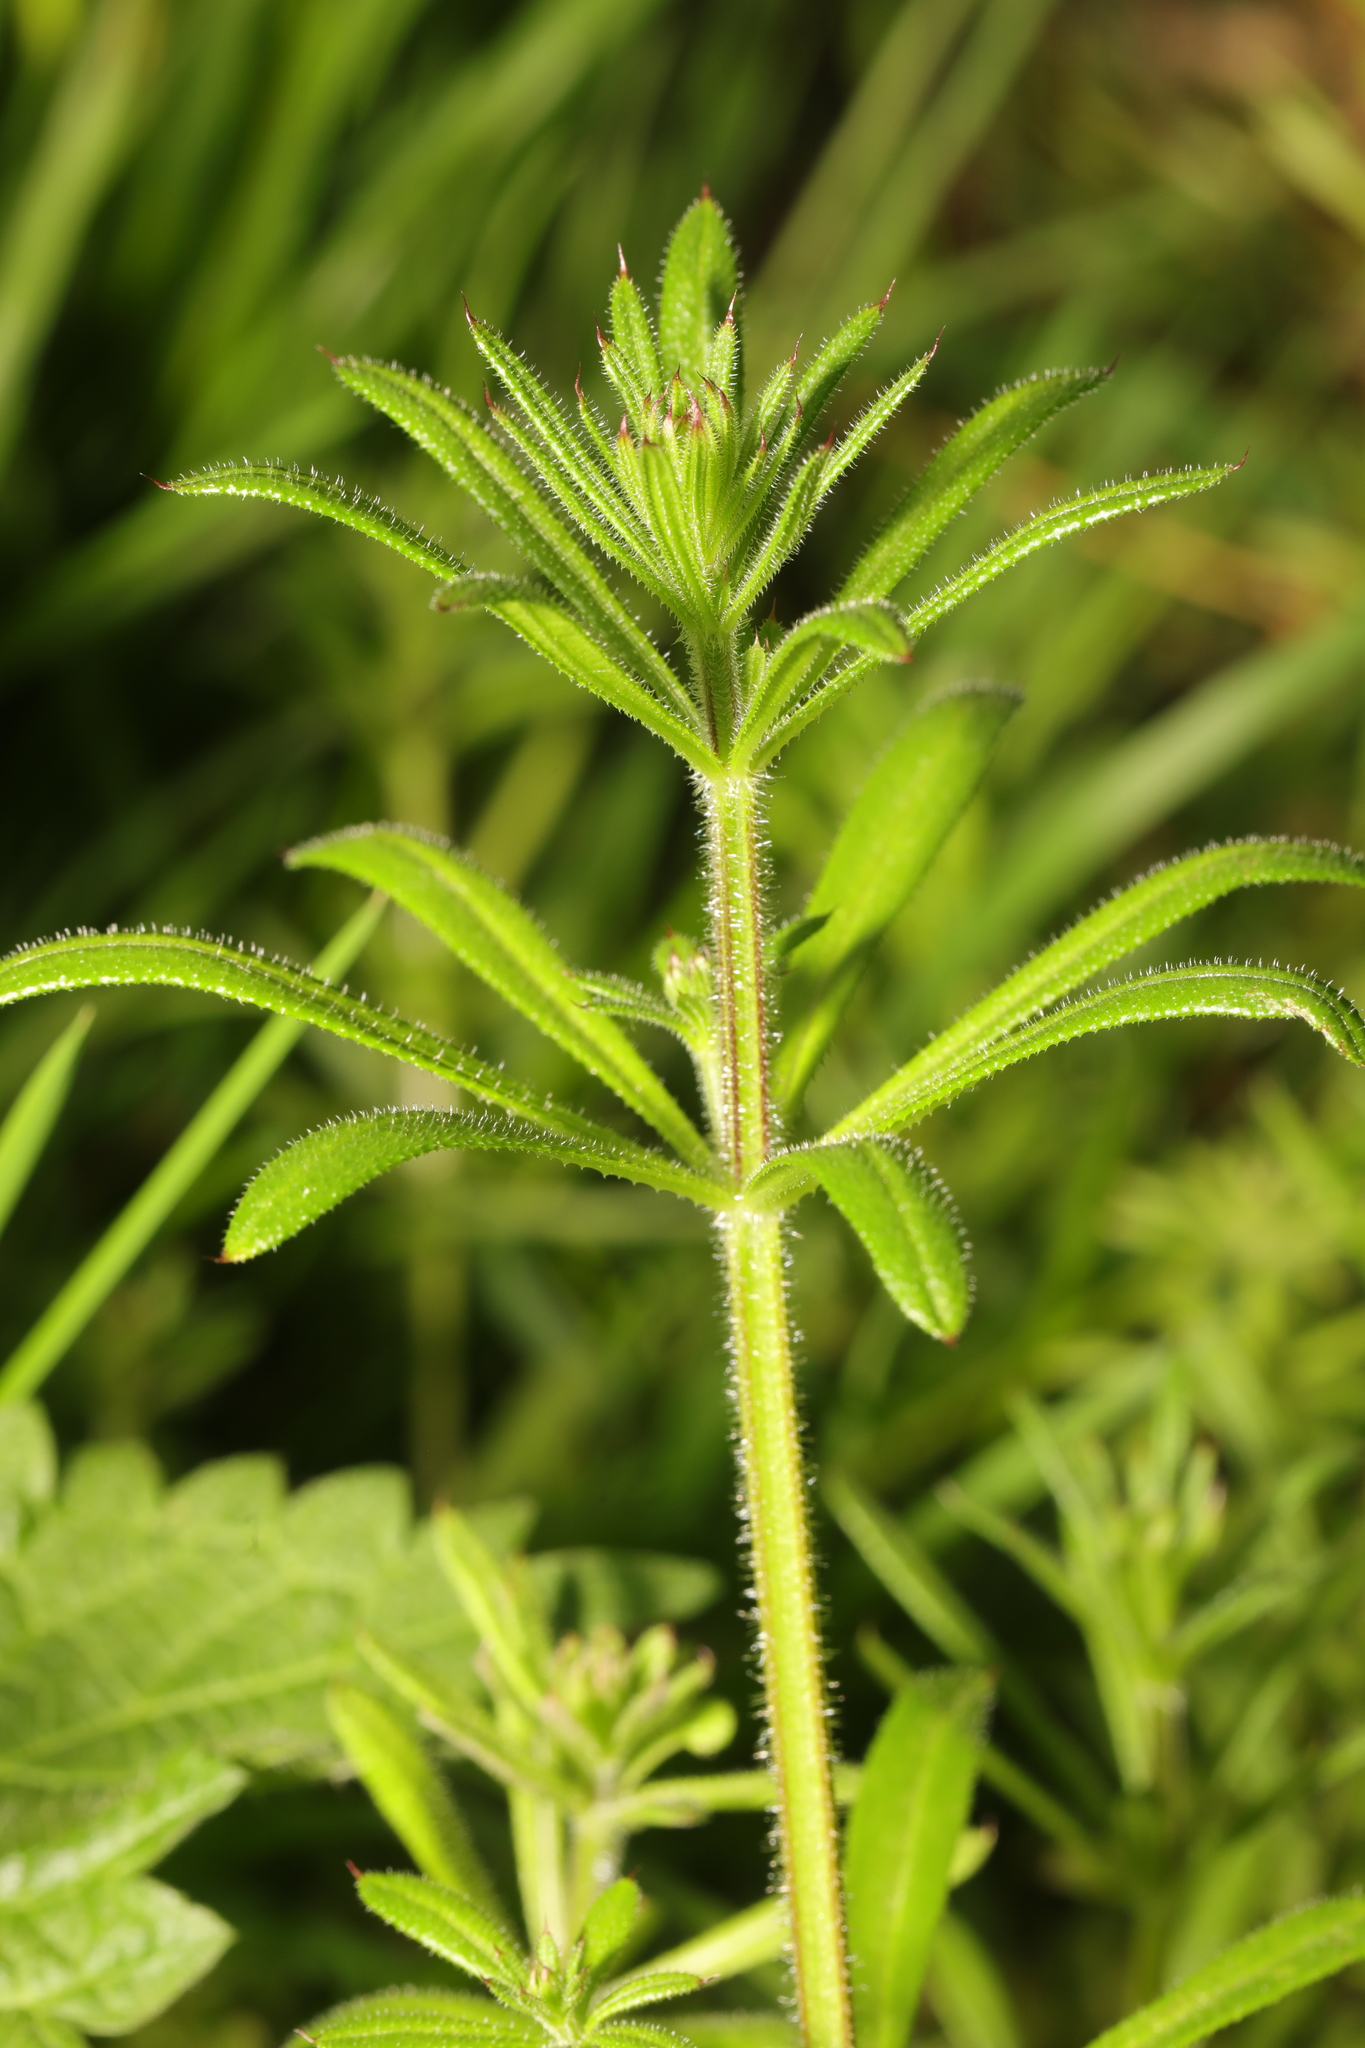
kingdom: Plantae
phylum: Tracheophyta
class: Magnoliopsida
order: Gentianales
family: Rubiaceae
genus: Galium
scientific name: Galium aparine
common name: Cleavers
